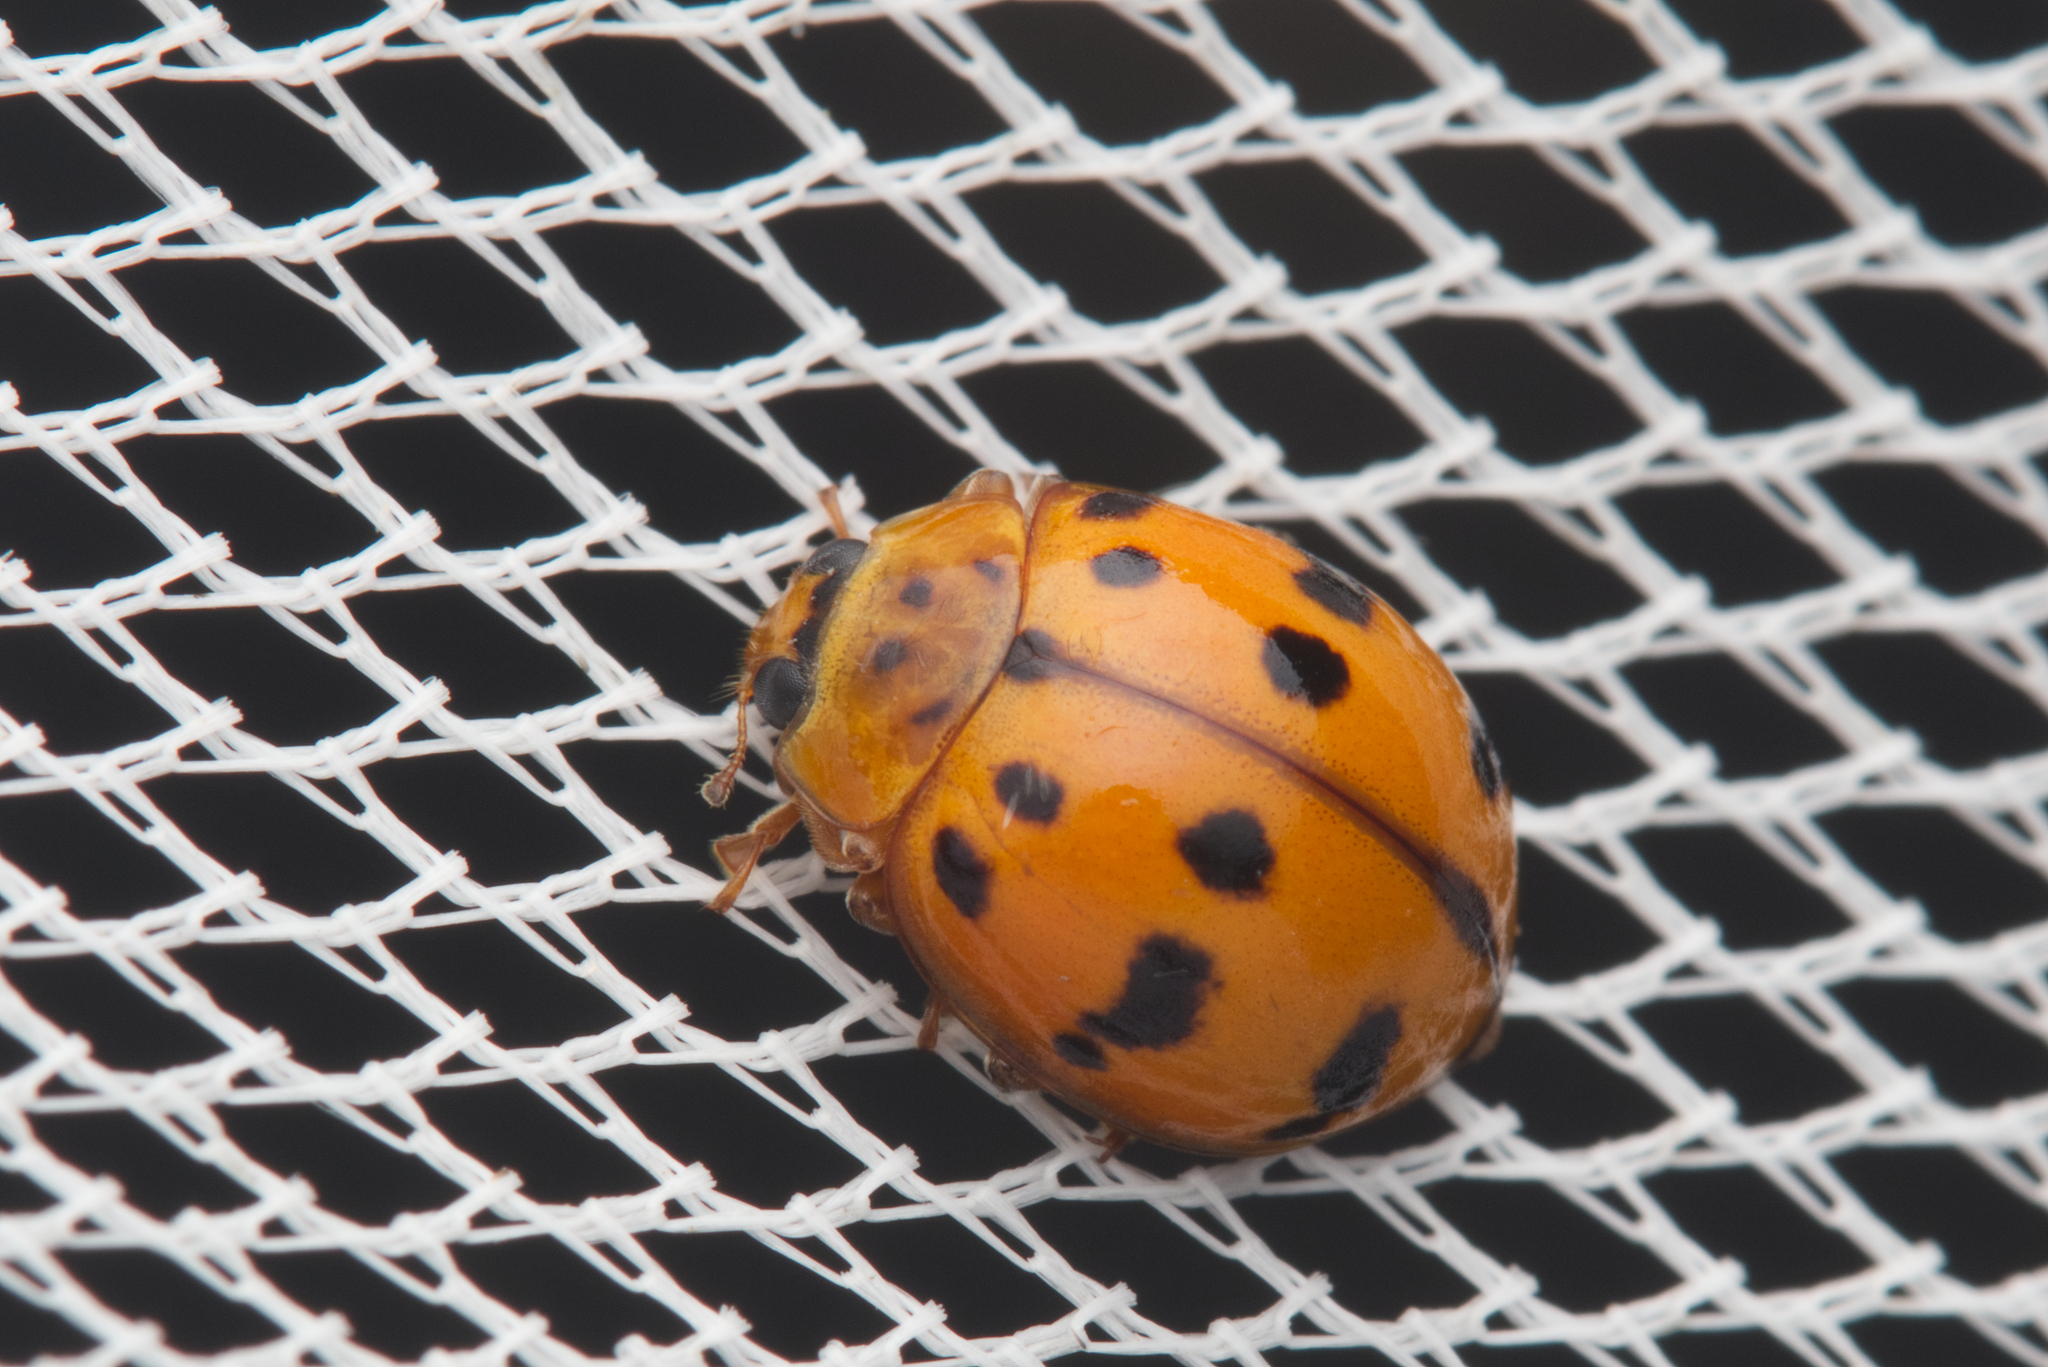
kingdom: Animalia
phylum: Arthropoda
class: Insecta
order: Coleoptera
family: Coccinellidae
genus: Harmonia
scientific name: Harmonia octomaculata
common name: Lady beetle
